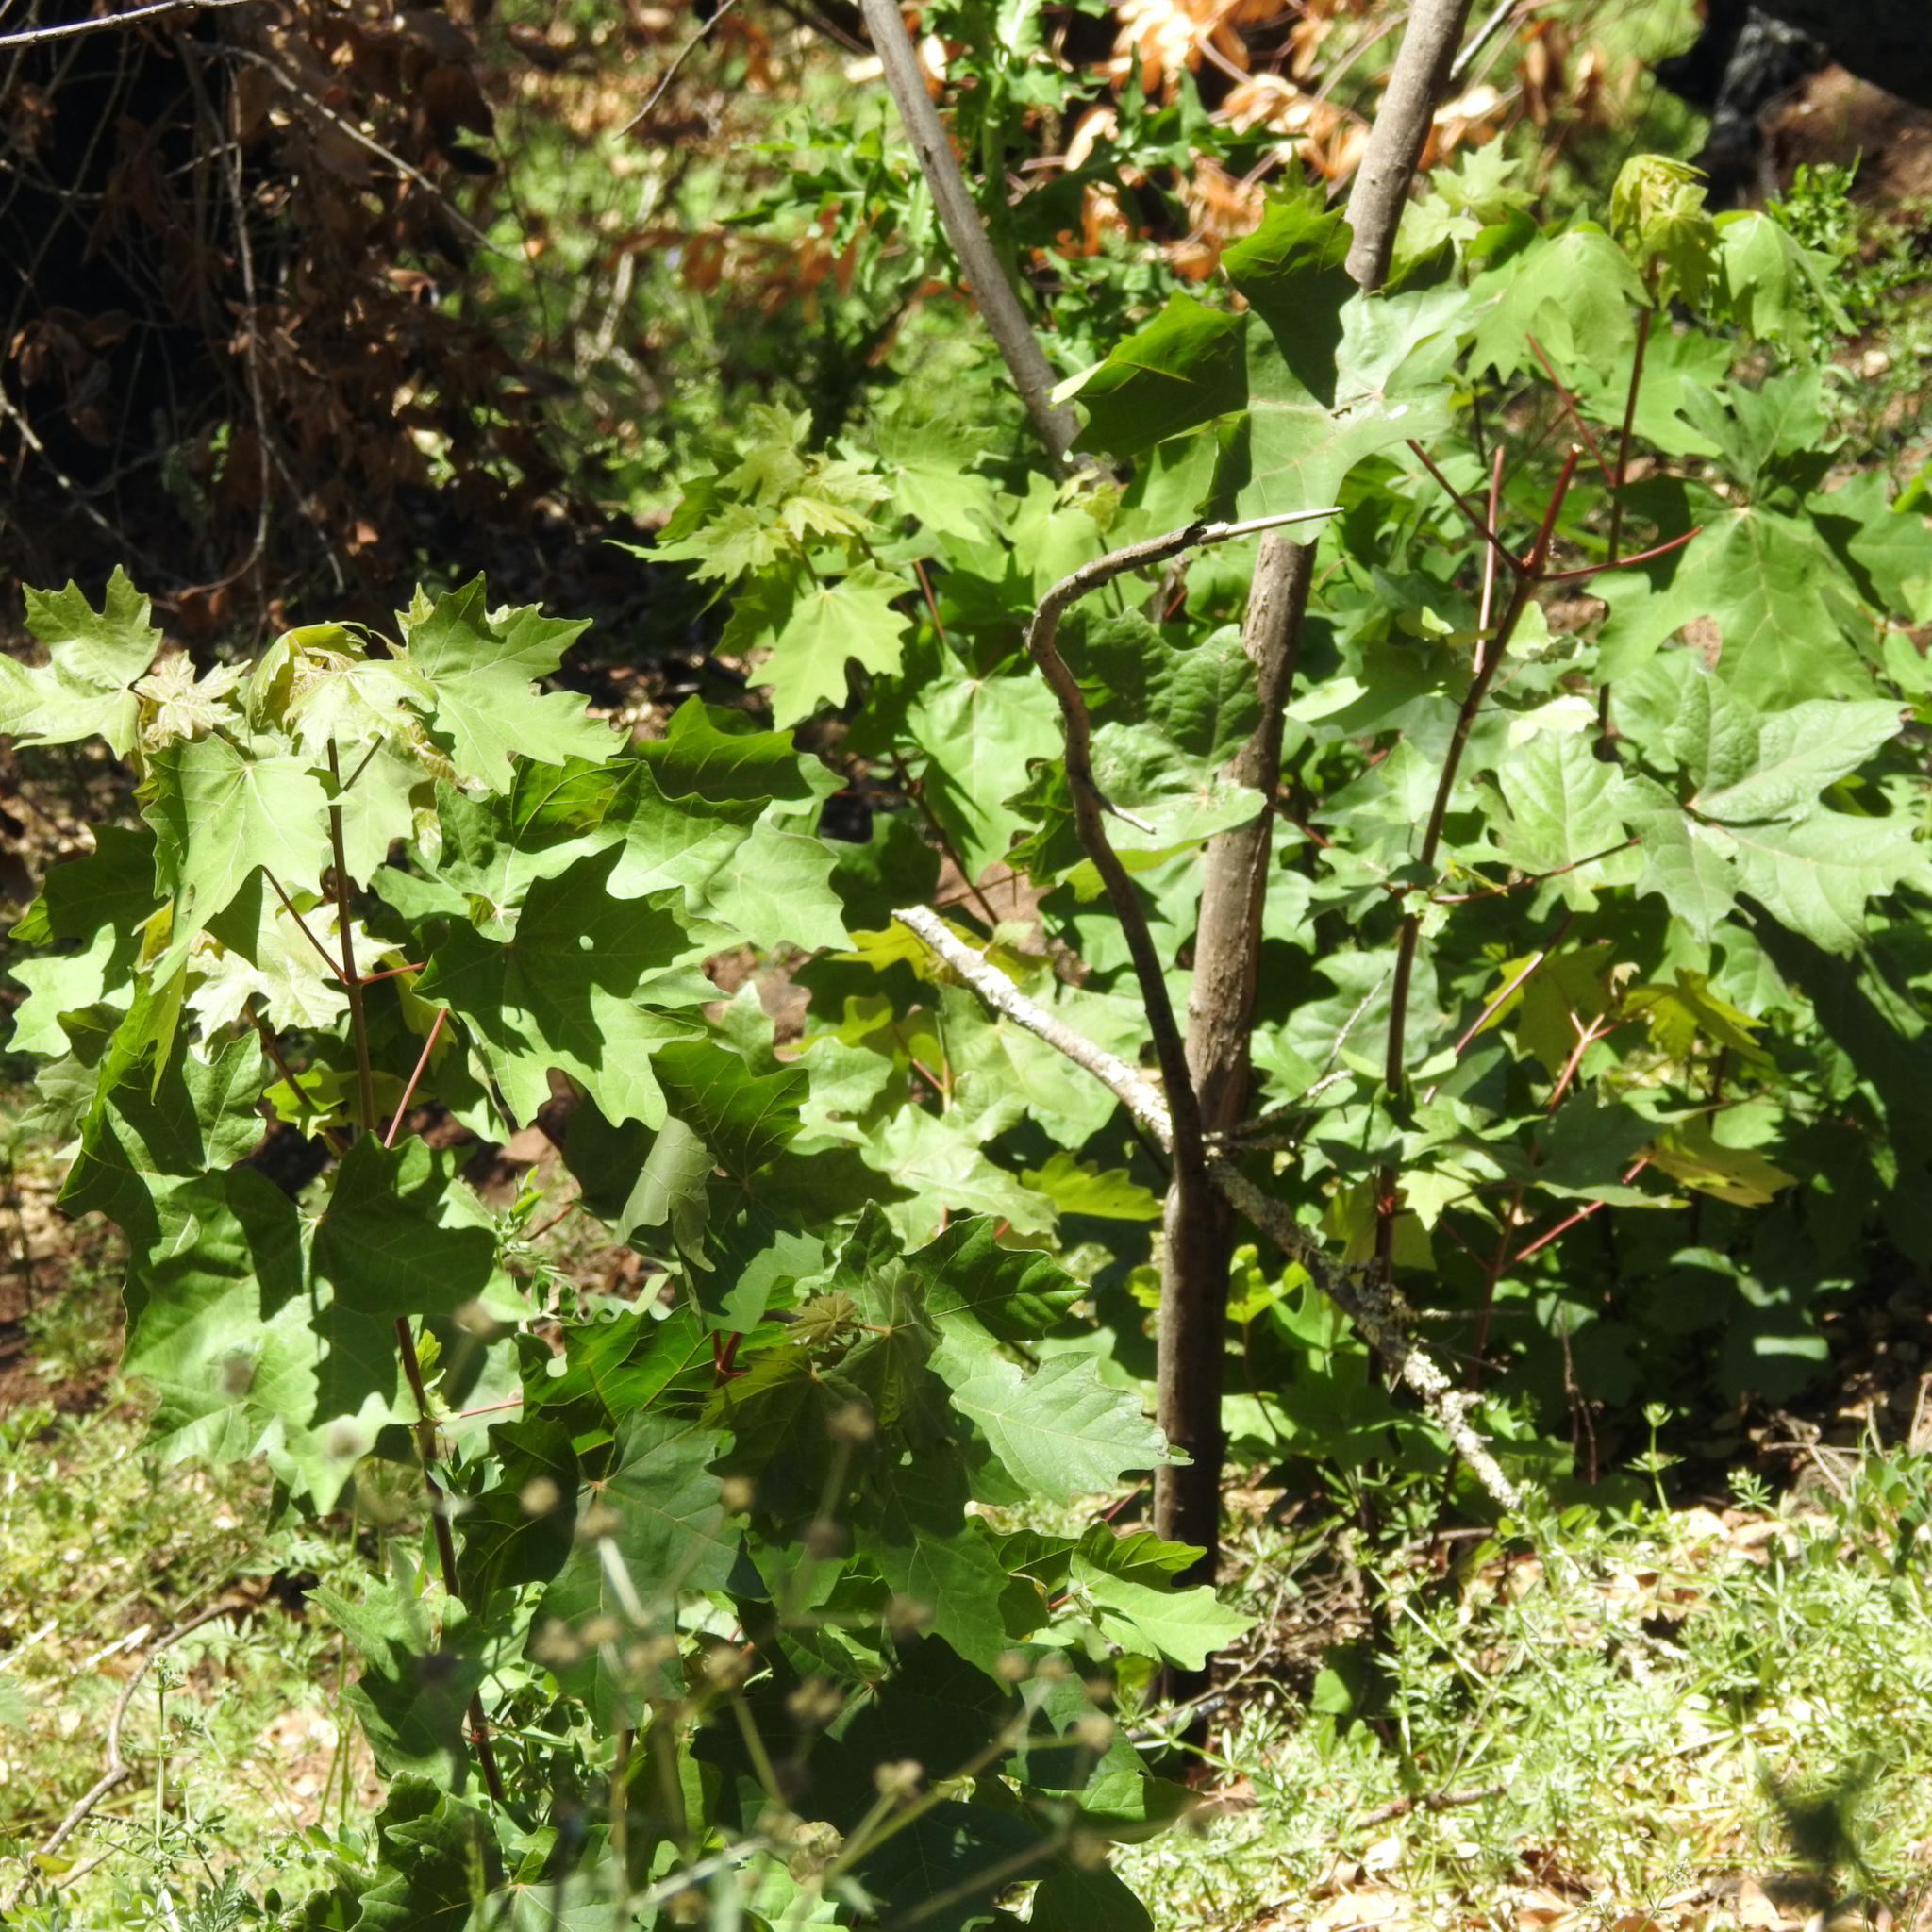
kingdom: Plantae
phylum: Tracheophyta
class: Magnoliopsida
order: Sapindales
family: Sapindaceae
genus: Acer
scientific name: Acer macrophyllum
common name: Oregon maple
